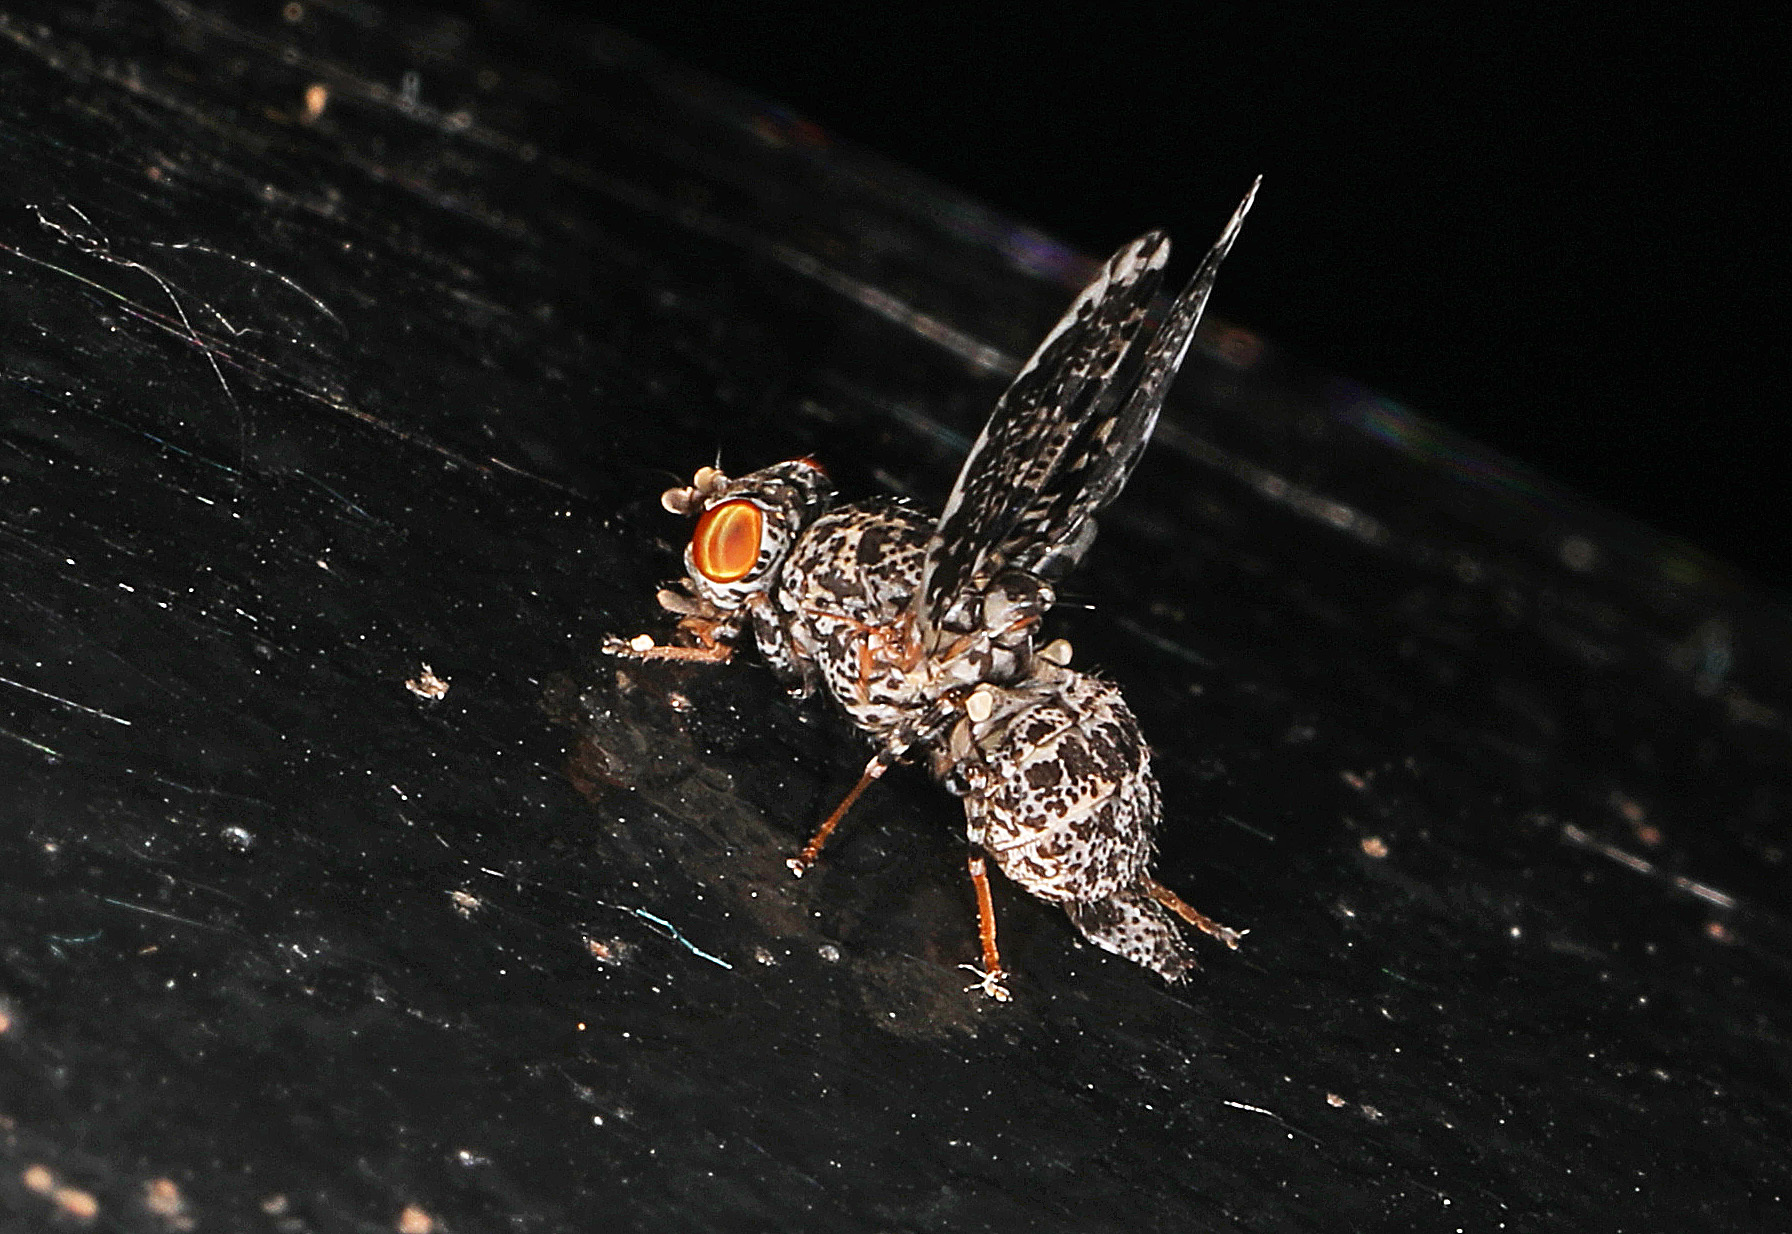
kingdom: Animalia
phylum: Arthropoda
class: Insecta
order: Diptera
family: Ulidiidae
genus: Callopistromyia
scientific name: Callopistromyia annulipes
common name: Peacock fly
